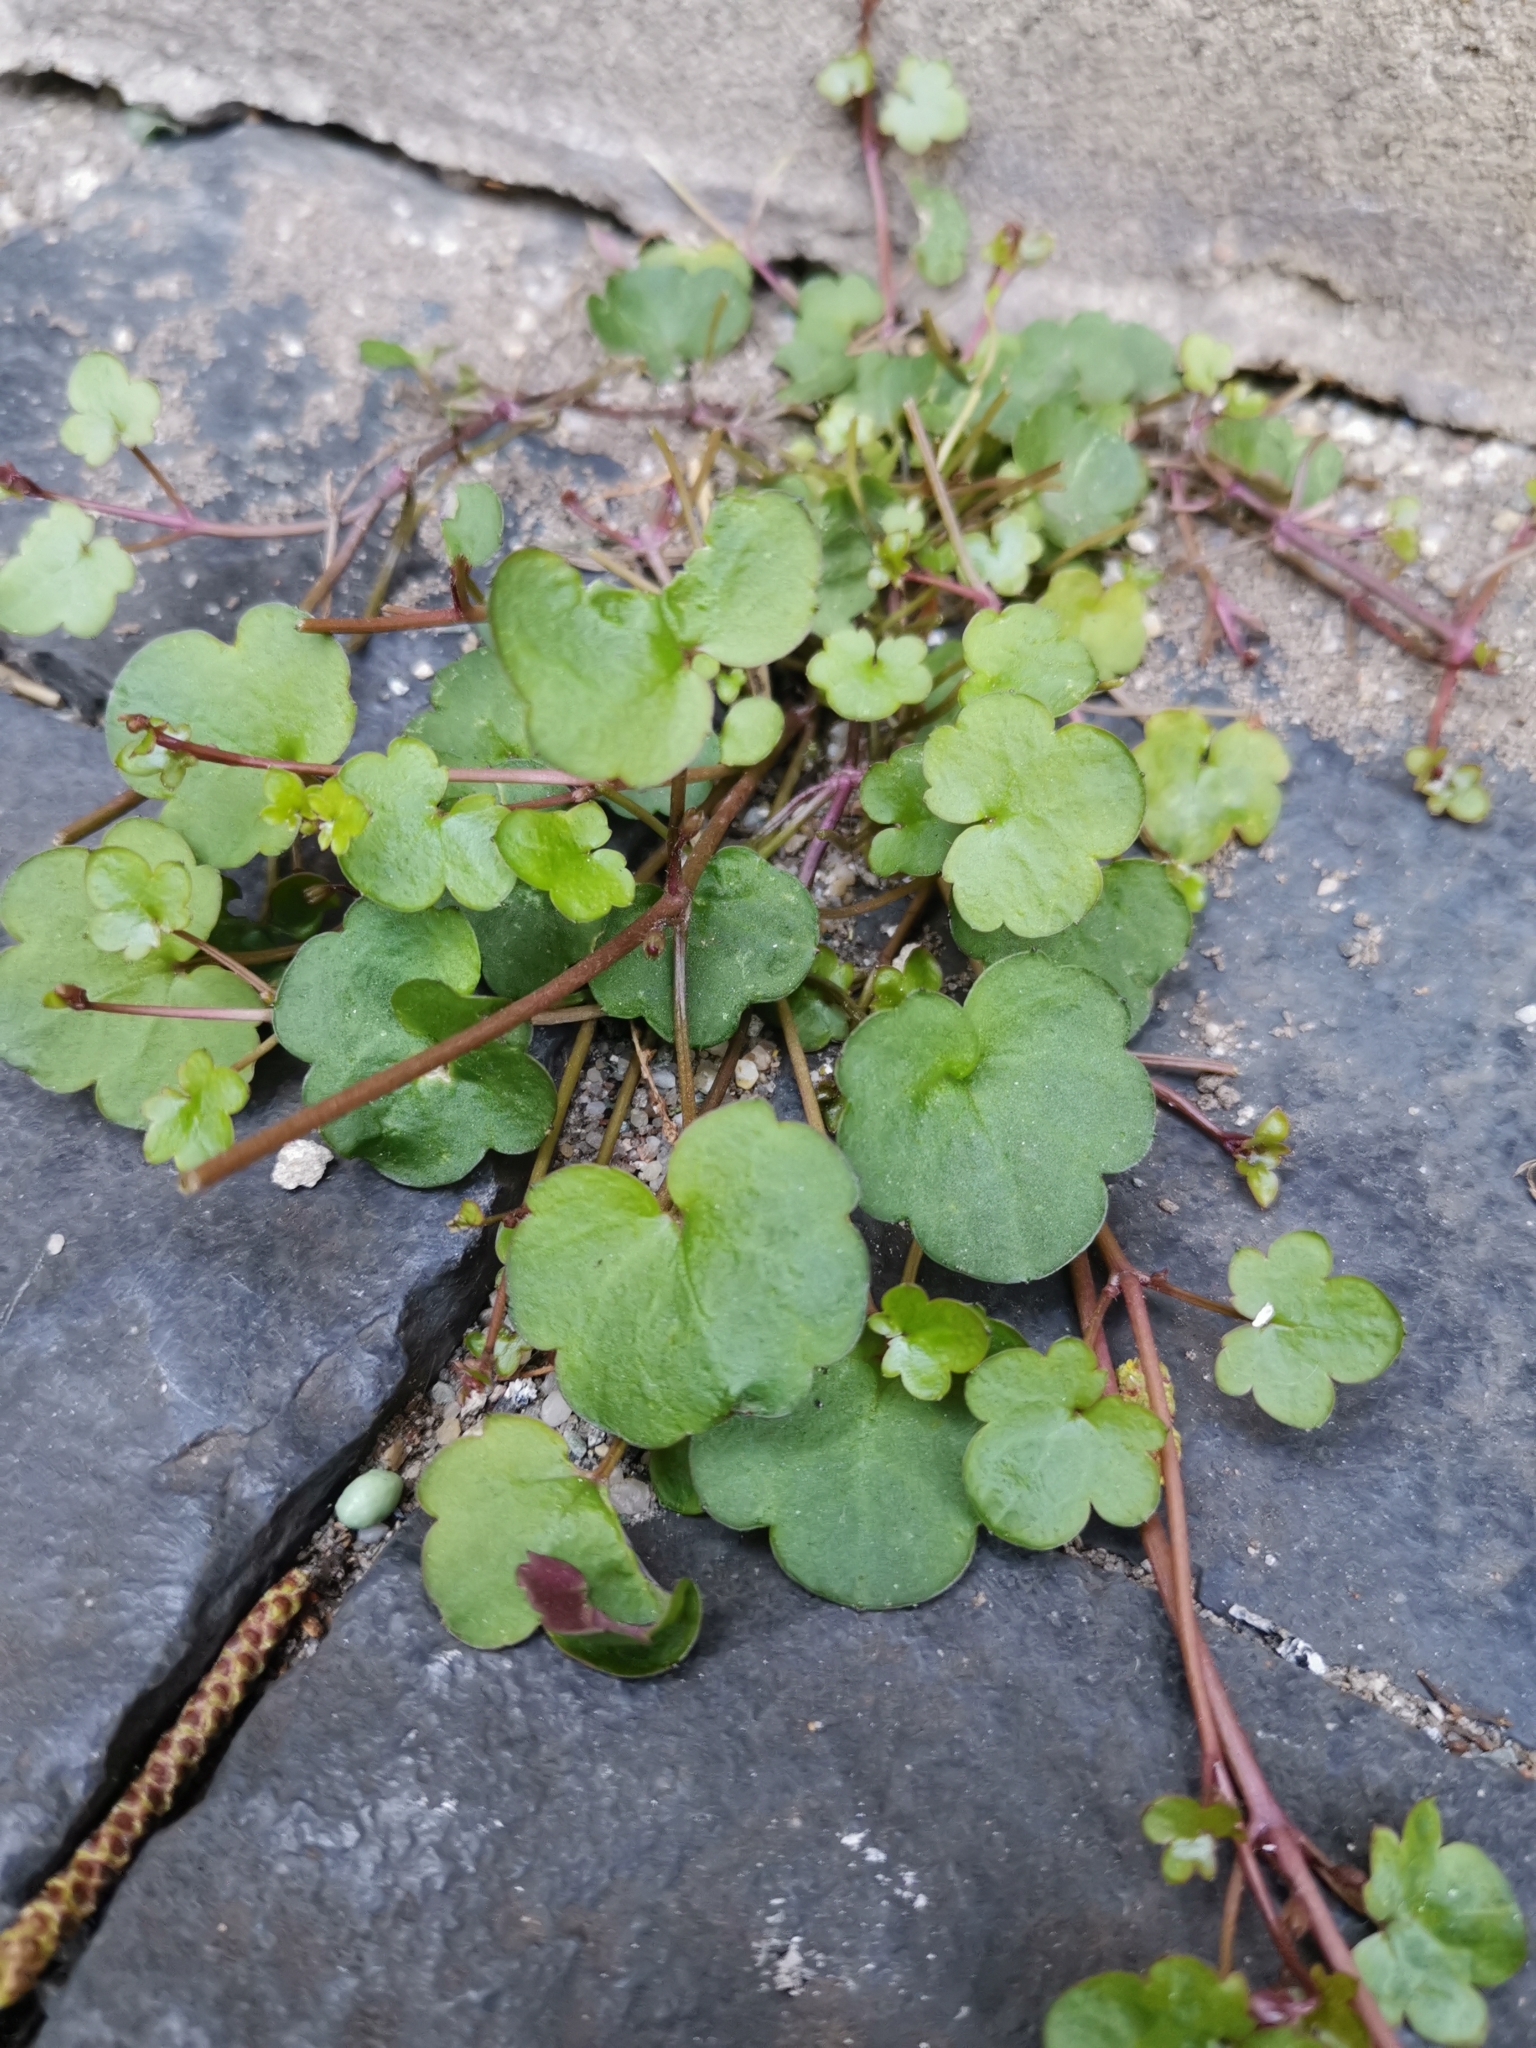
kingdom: Plantae
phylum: Tracheophyta
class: Magnoliopsida
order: Lamiales
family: Plantaginaceae
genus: Cymbalaria
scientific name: Cymbalaria muralis
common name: Ivy-leaved toadflax
